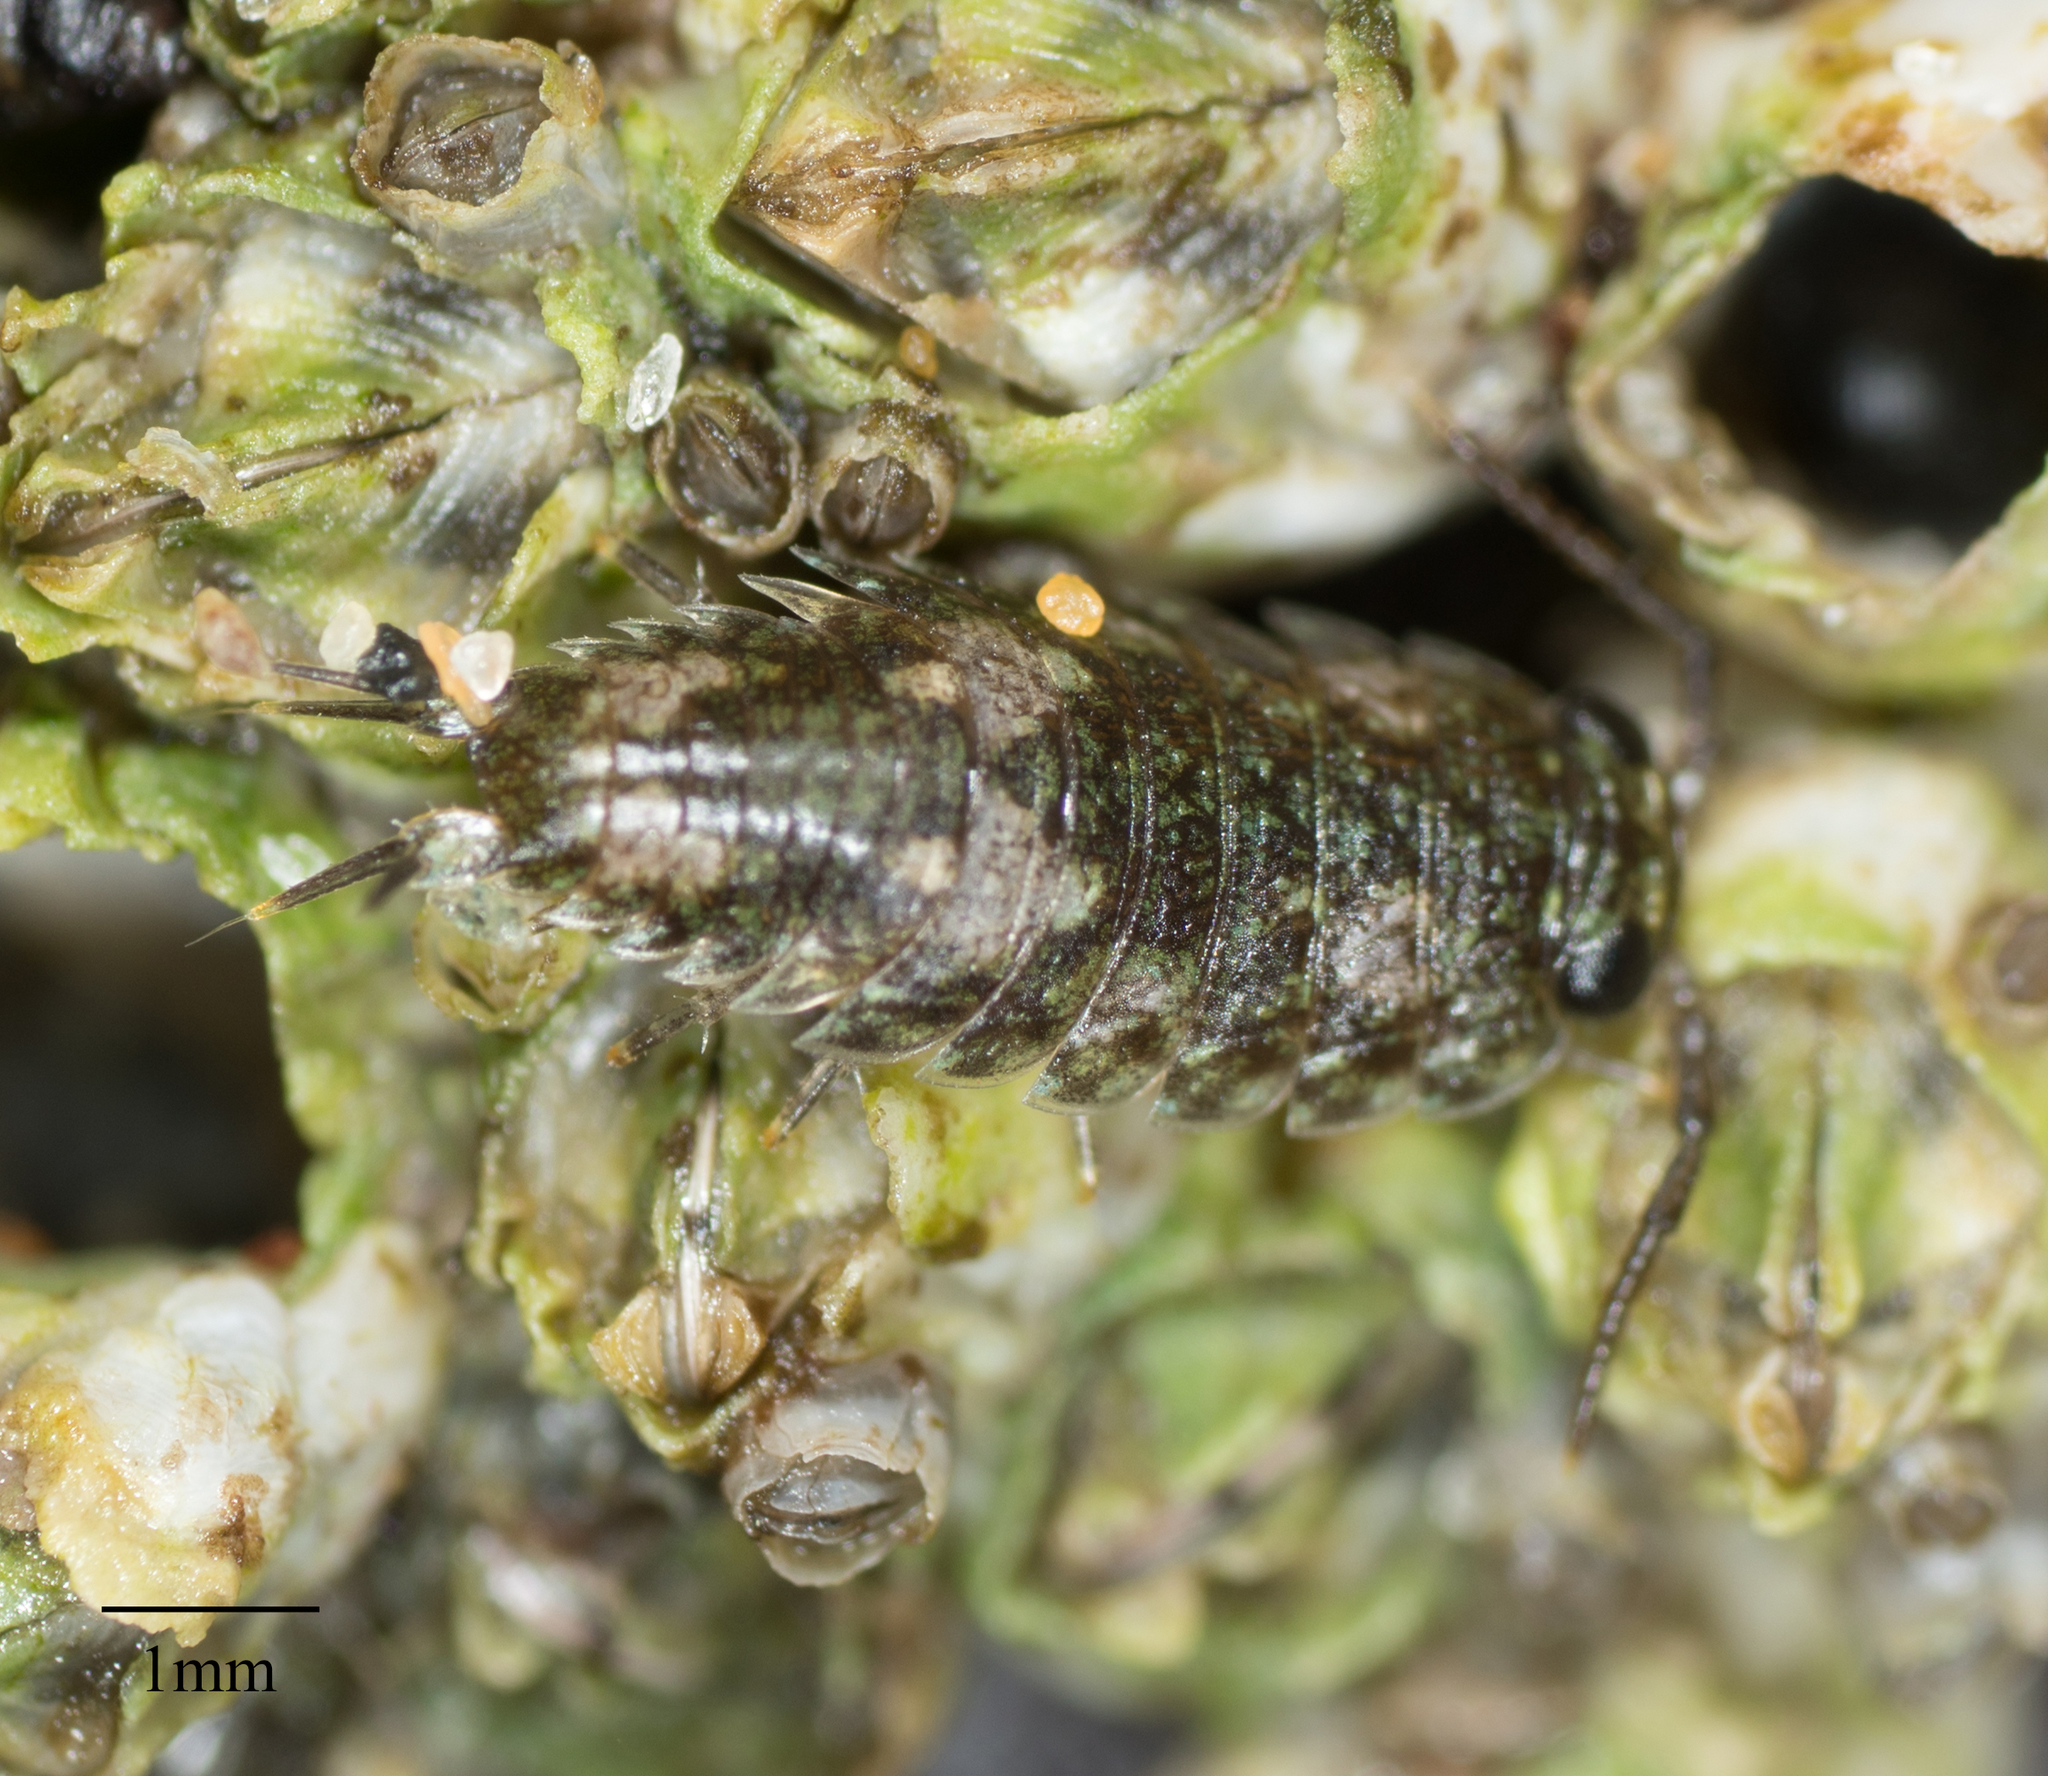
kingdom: Animalia
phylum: Arthropoda
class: Malacostraca
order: Isopoda
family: Ligiidae
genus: Ligia
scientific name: Ligia pallasii
